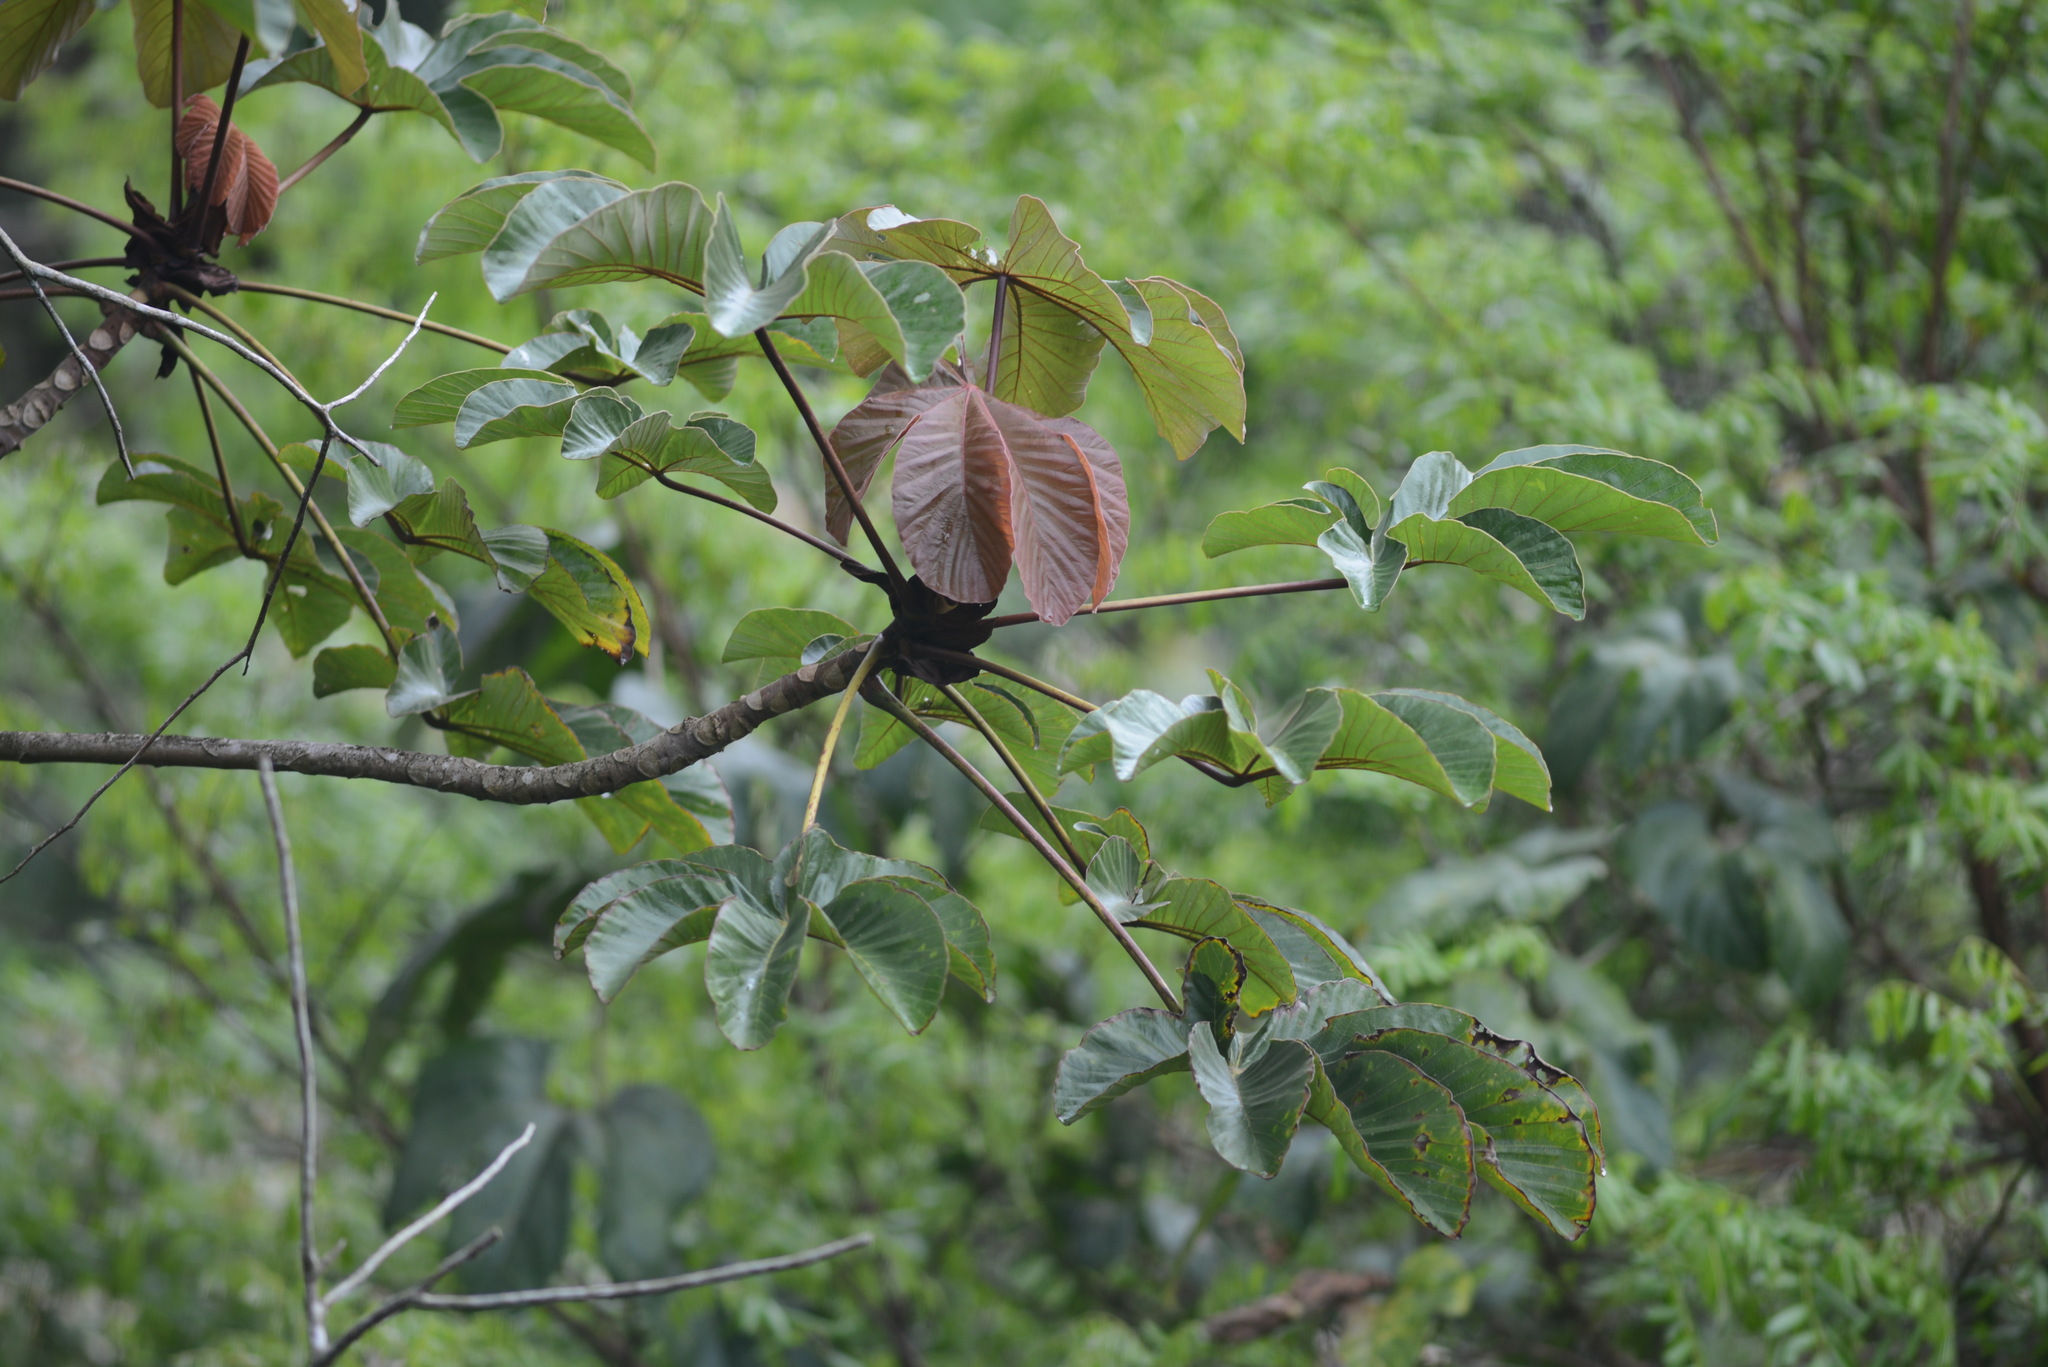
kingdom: Plantae
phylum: Tracheophyta
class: Magnoliopsida
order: Rosales
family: Urticaceae
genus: Cecropia
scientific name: Cecropia palmata
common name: Trumpet tree
